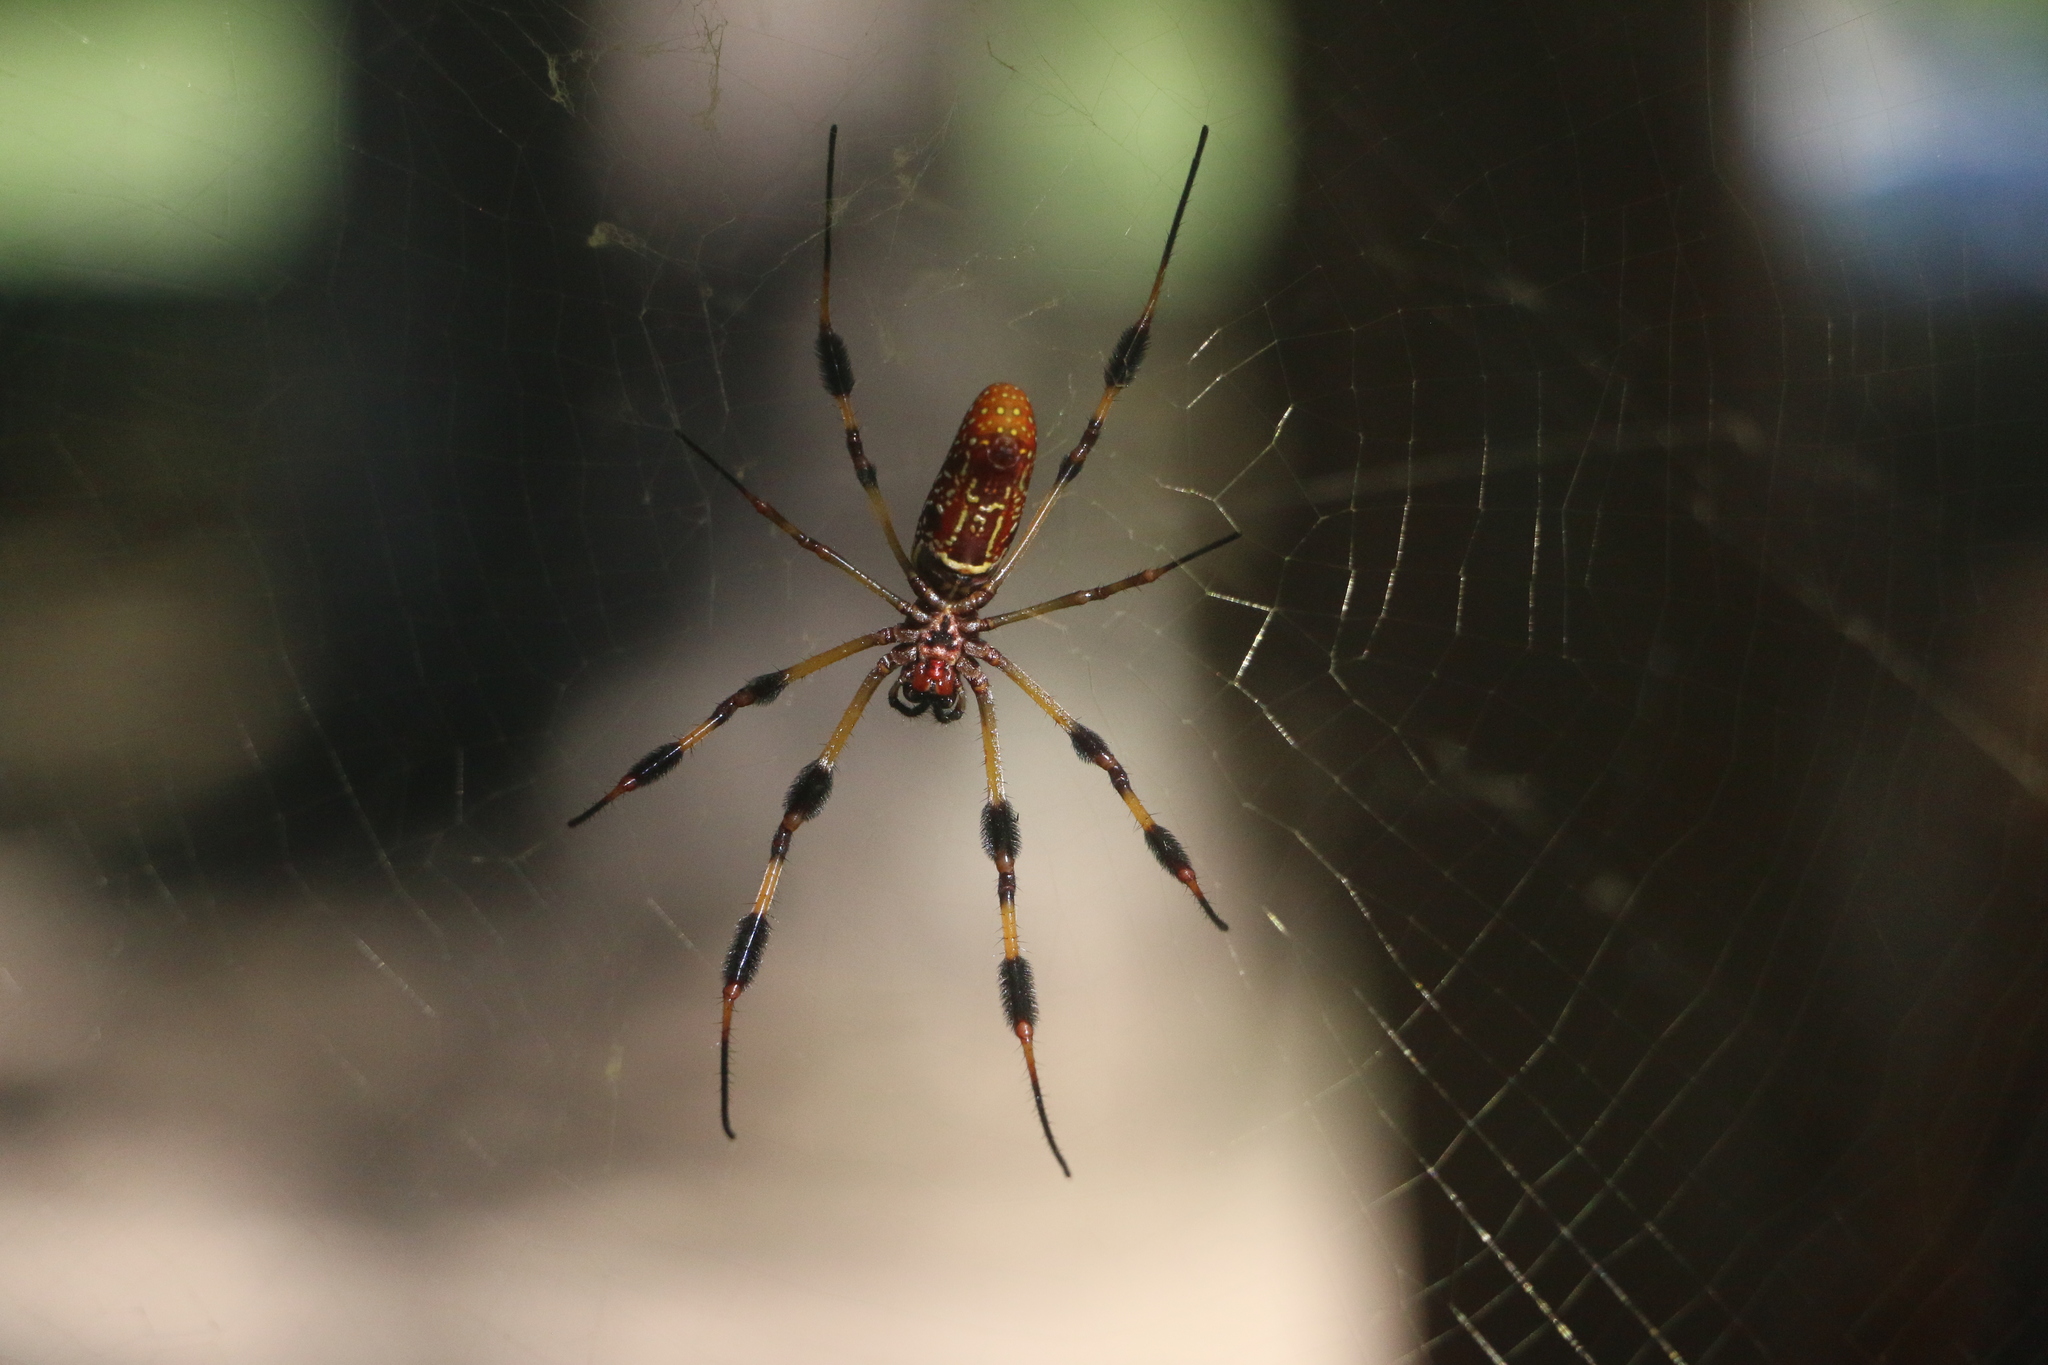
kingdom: Animalia
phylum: Arthropoda
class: Arachnida
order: Araneae
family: Araneidae
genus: Trichonephila
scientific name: Trichonephila clavipes
